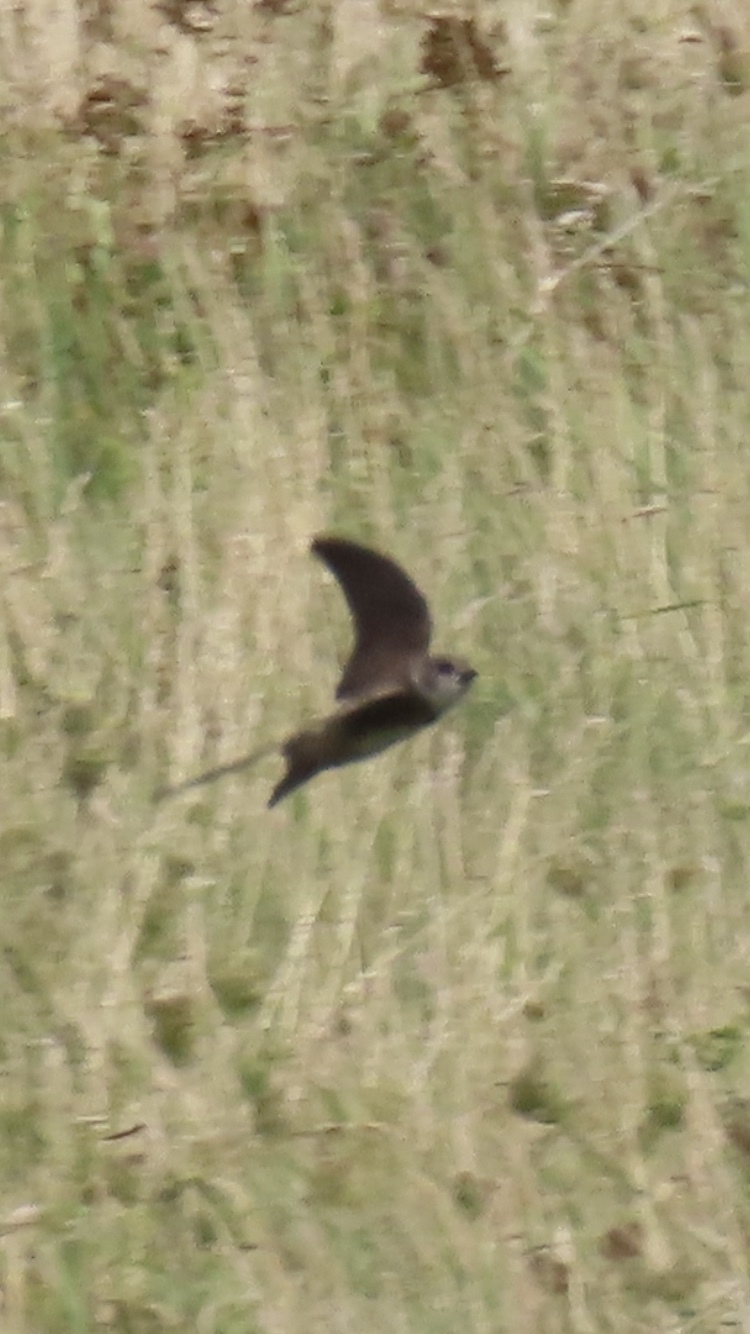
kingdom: Animalia
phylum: Chordata
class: Aves
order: Passeriformes
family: Hirundinidae
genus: Riparia
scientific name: Riparia riparia
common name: Sand martin
